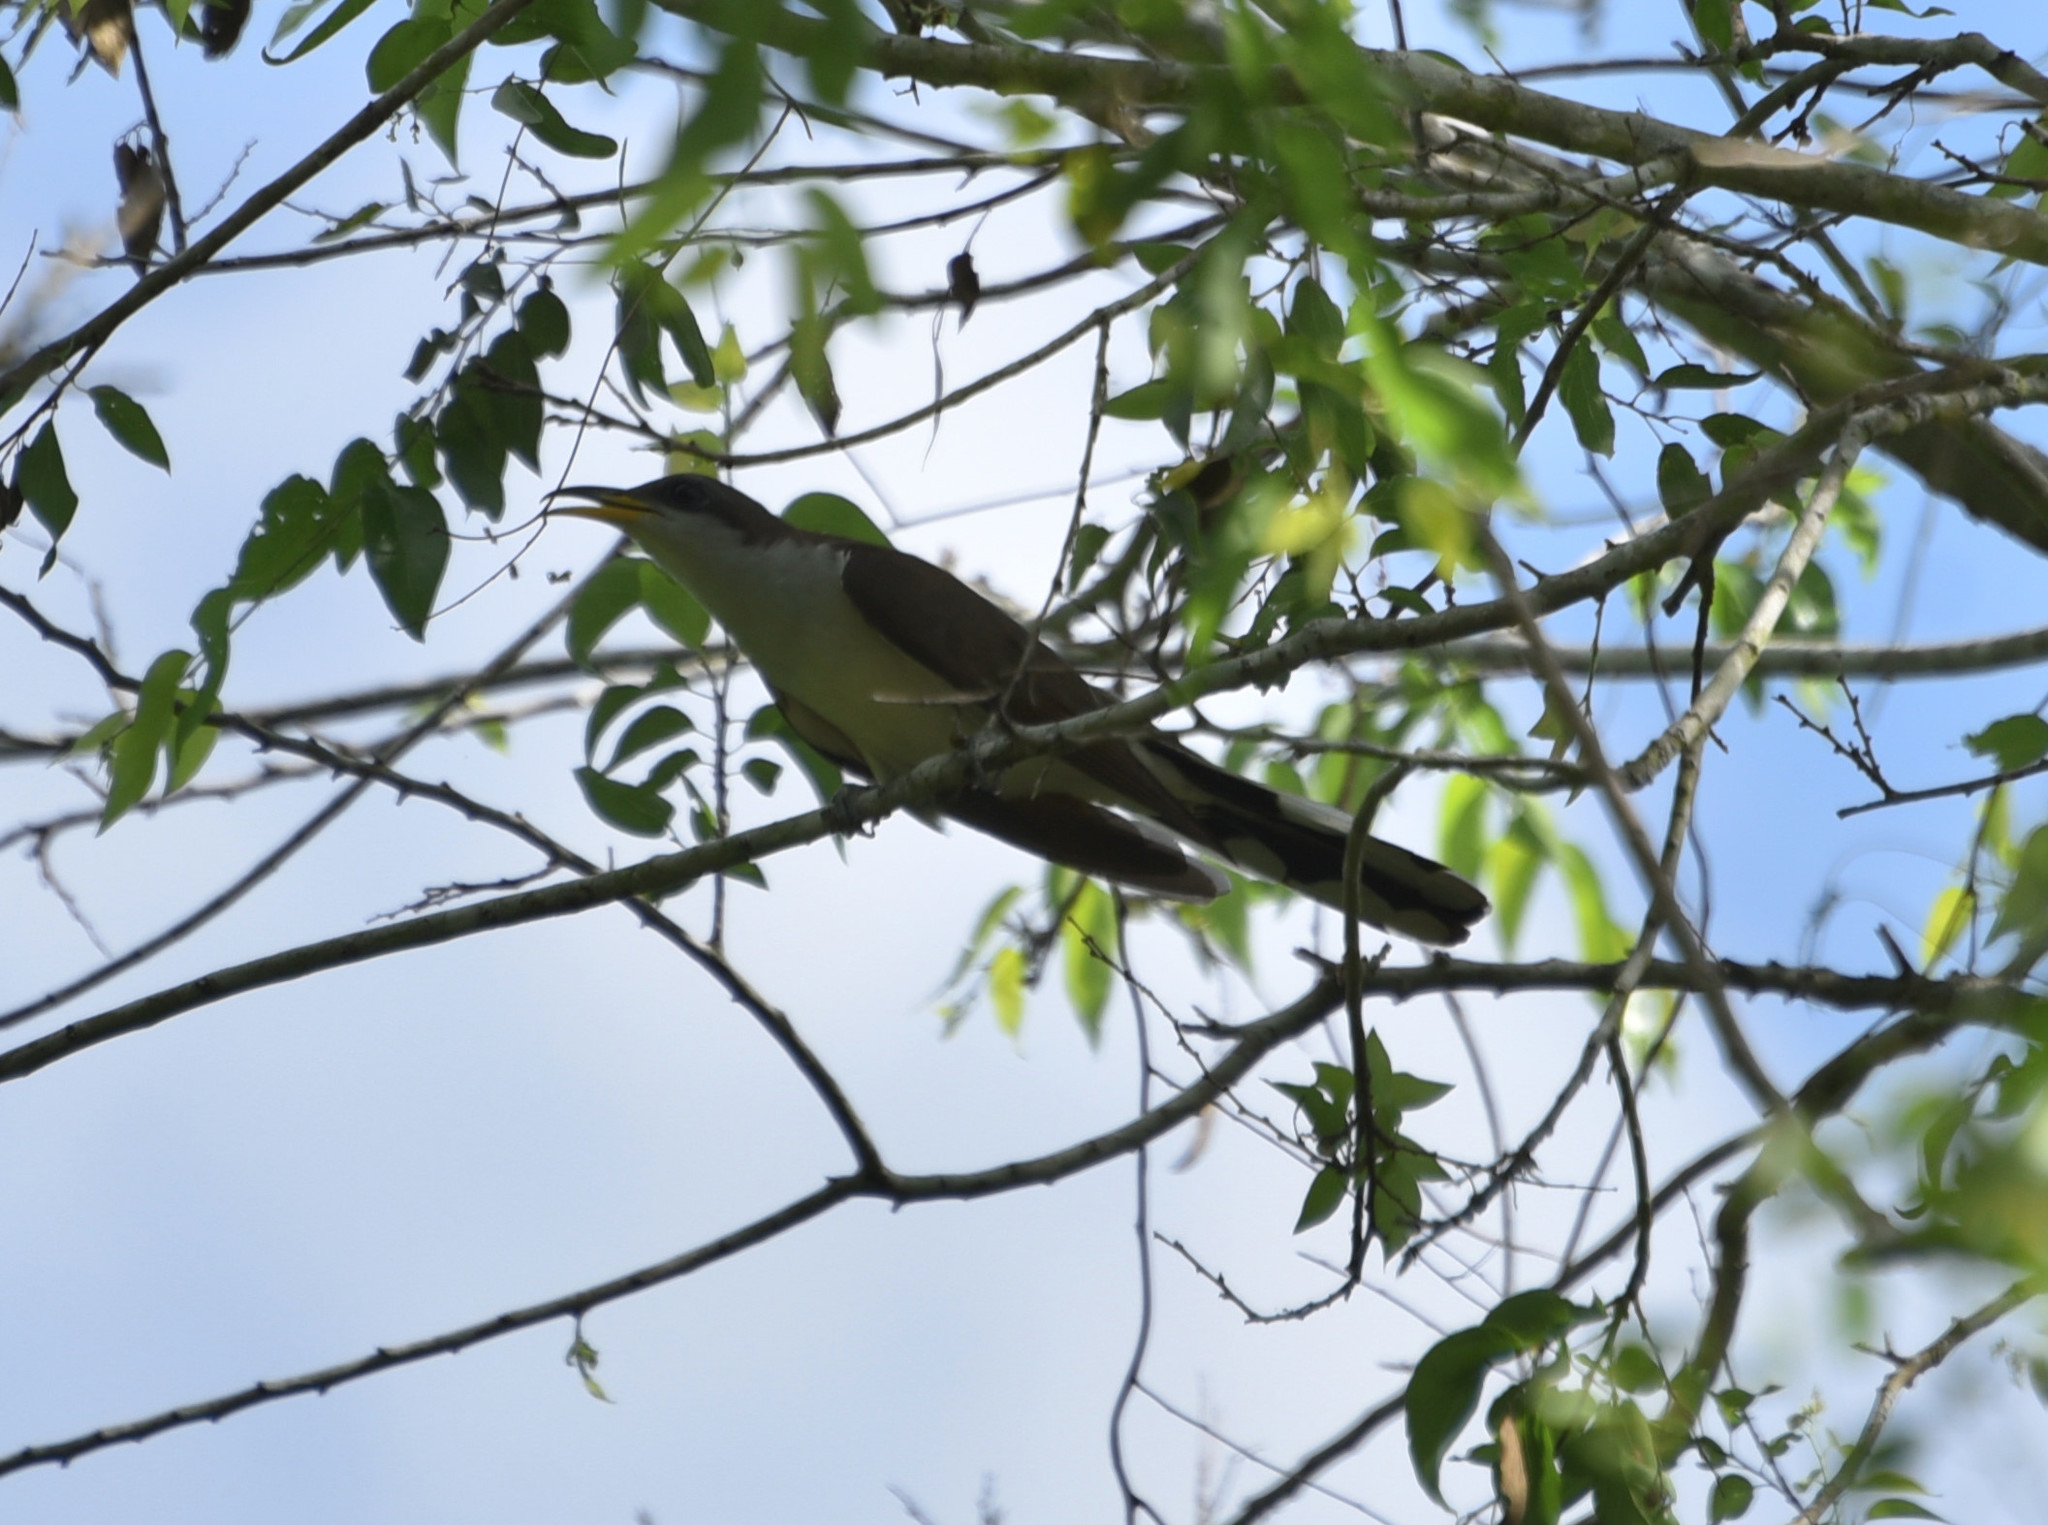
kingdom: Animalia
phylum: Chordata
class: Aves
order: Cuculiformes
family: Cuculidae
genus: Coccyzus
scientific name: Coccyzus americanus
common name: Yellow-billed cuckoo
